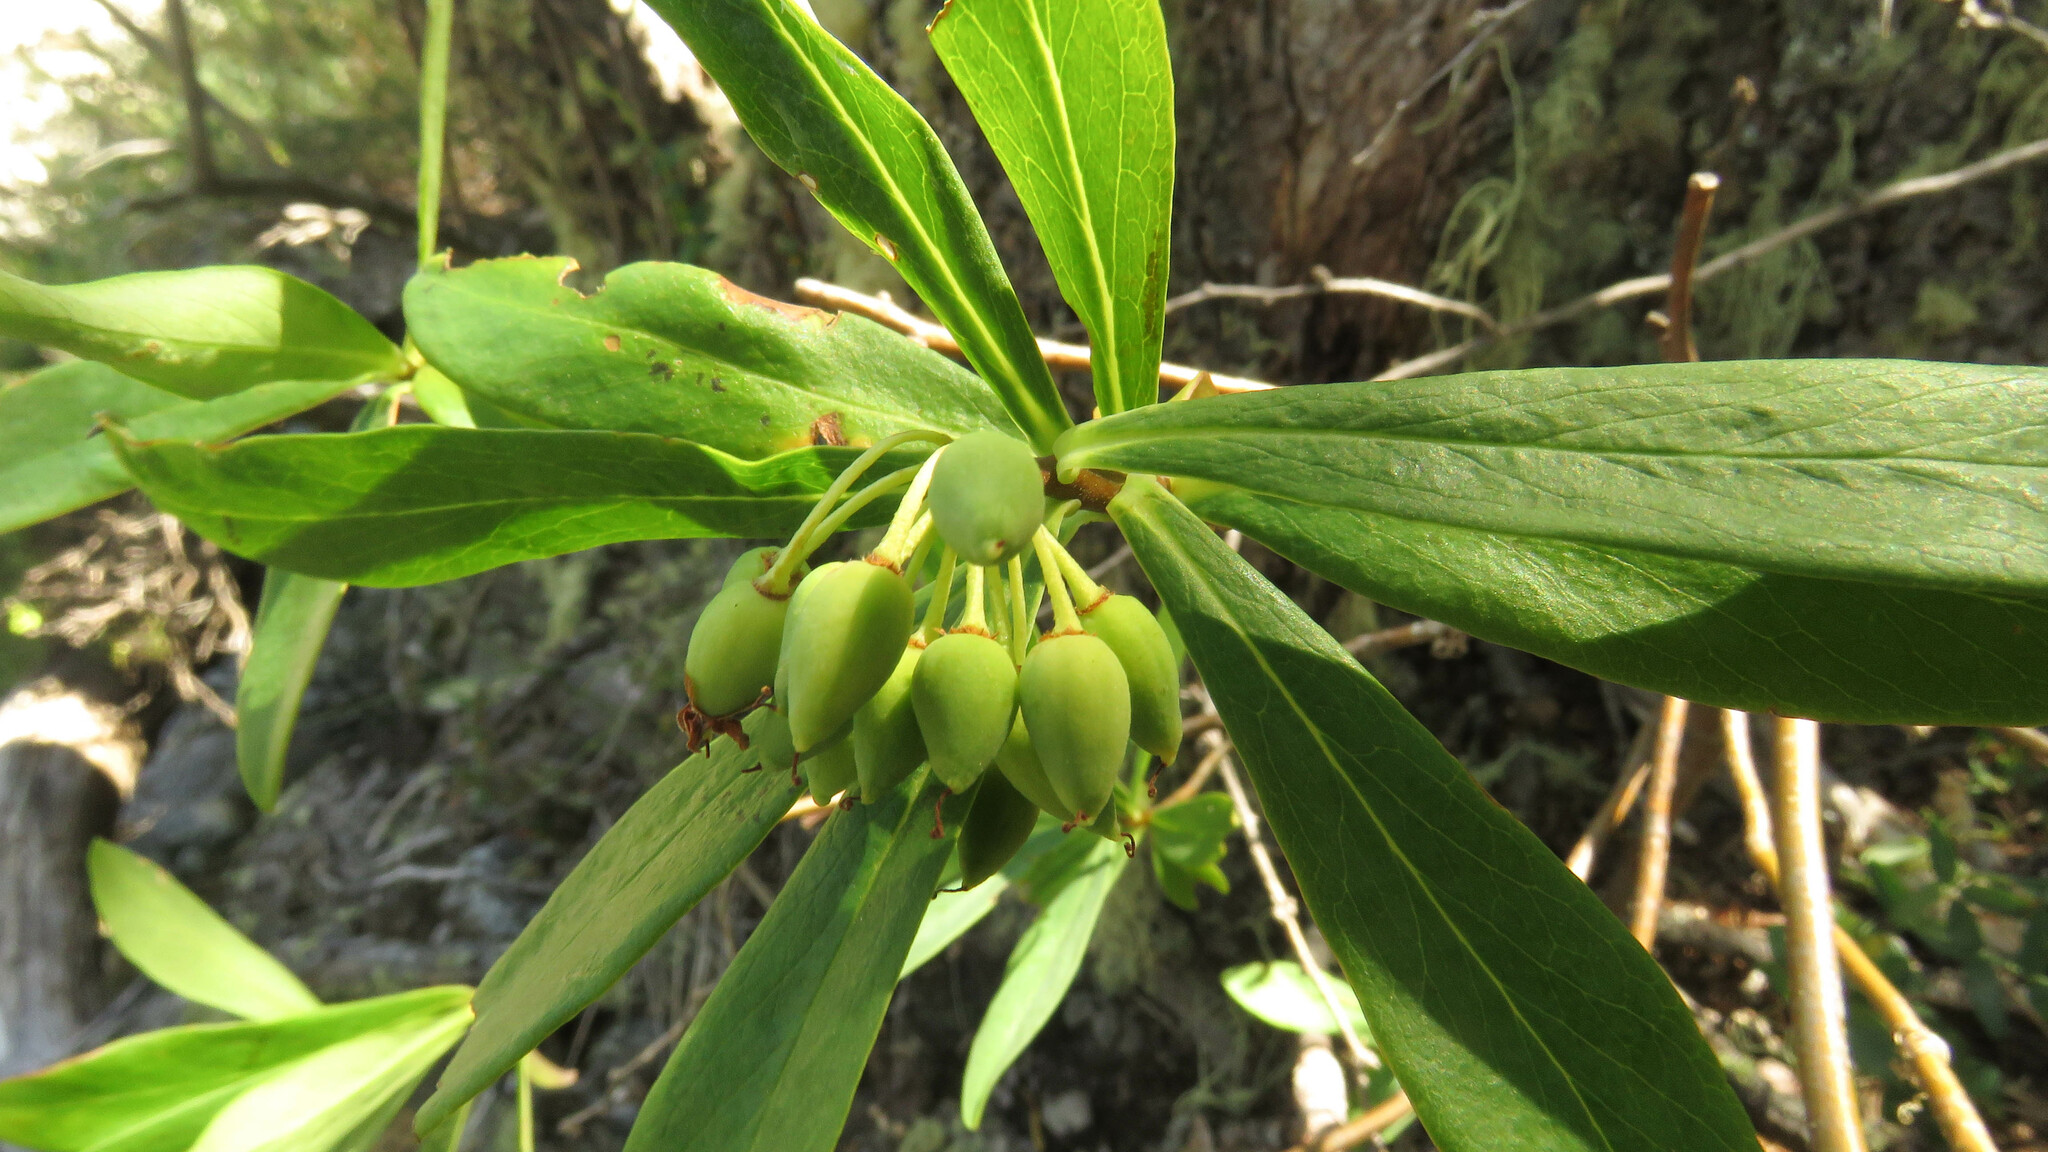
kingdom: Plantae
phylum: Tracheophyta
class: Magnoliopsida
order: Malvales
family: Thymelaeaceae
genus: Ovidia
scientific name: Ovidia andina
